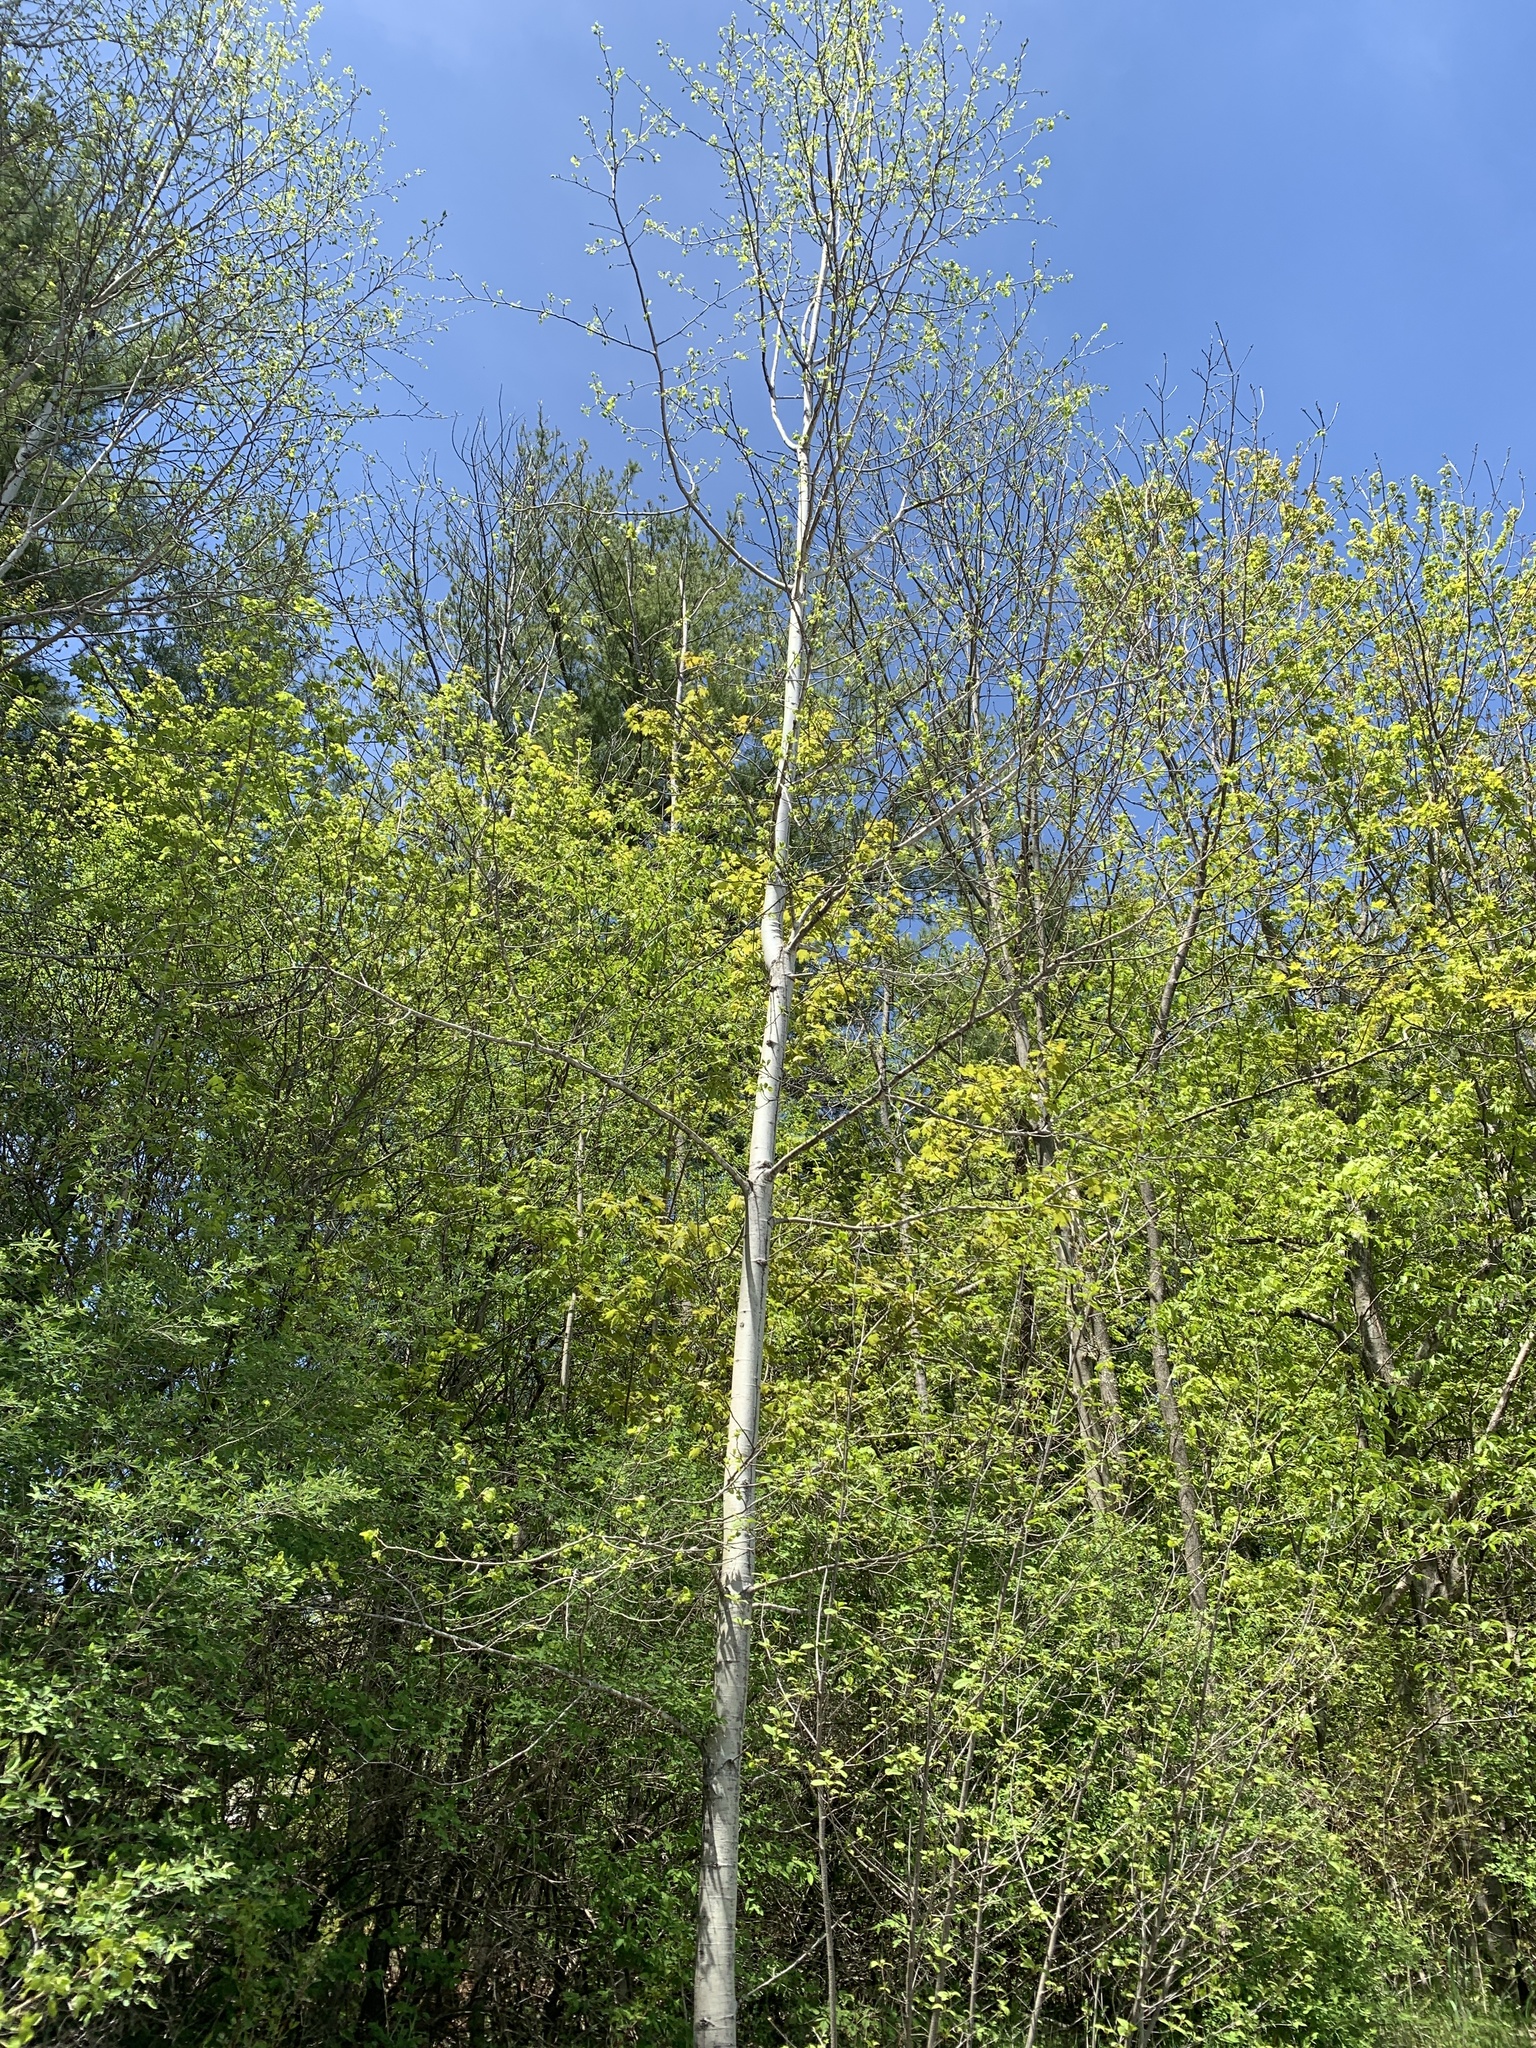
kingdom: Plantae
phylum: Tracheophyta
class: Magnoliopsida
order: Malpighiales
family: Salicaceae
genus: Populus
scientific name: Populus tremuloides
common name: Quaking aspen
